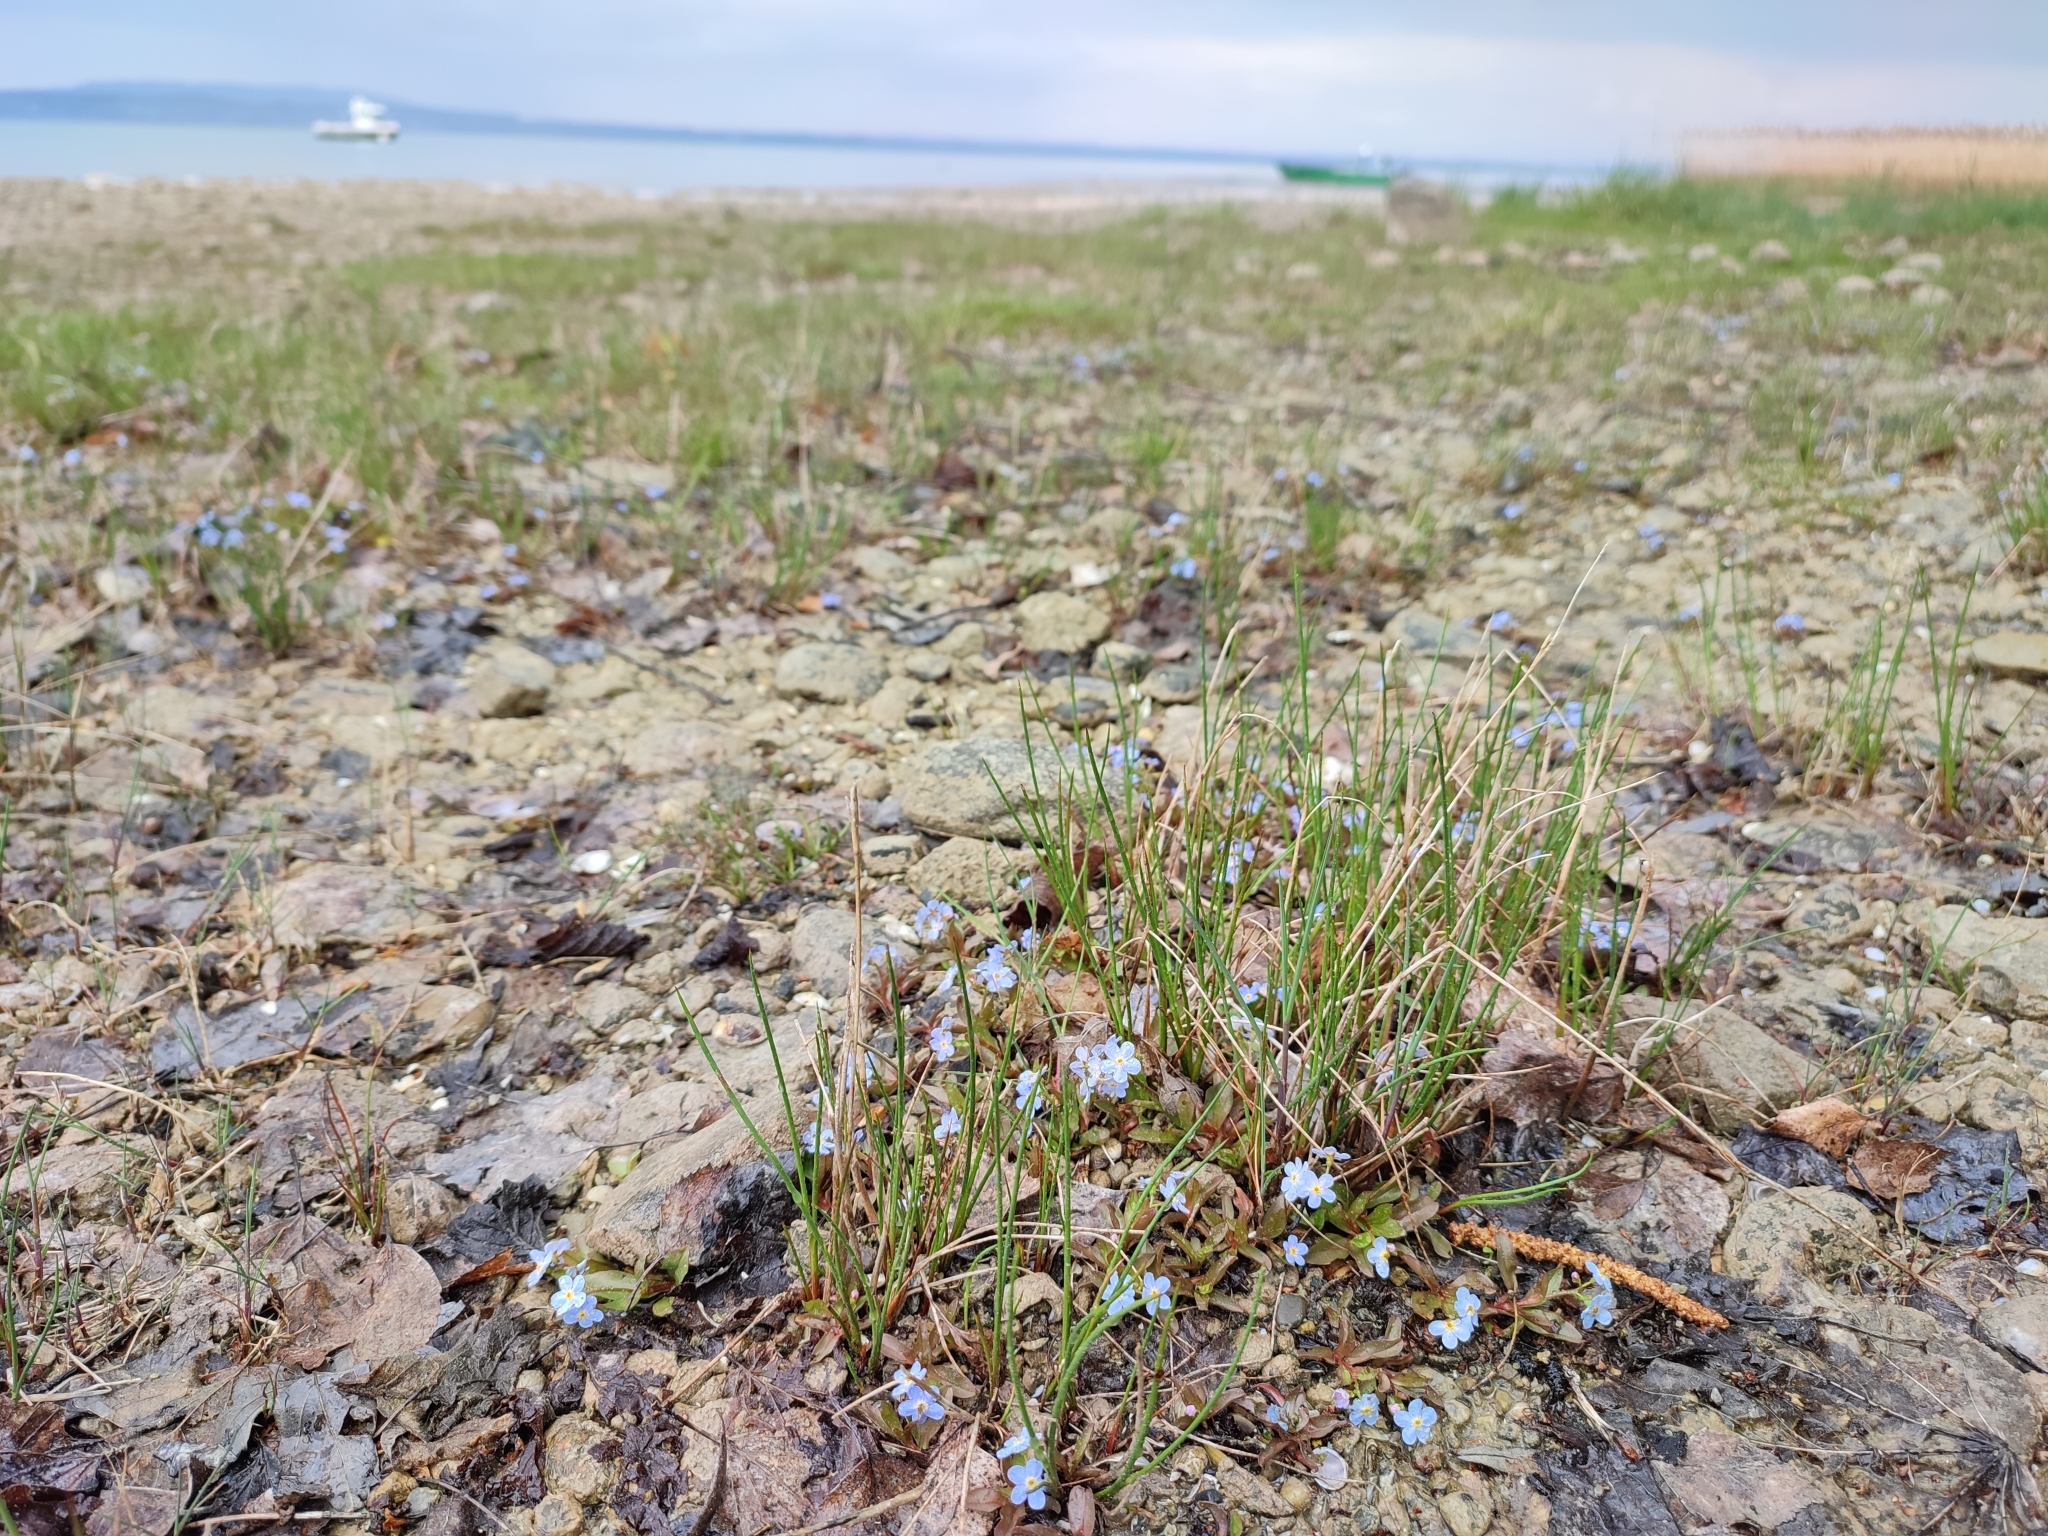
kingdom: Plantae
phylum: Tracheophyta
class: Magnoliopsida
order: Boraginales
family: Boraginaceae
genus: Myosotis
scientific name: Myosotis rehsteineri
